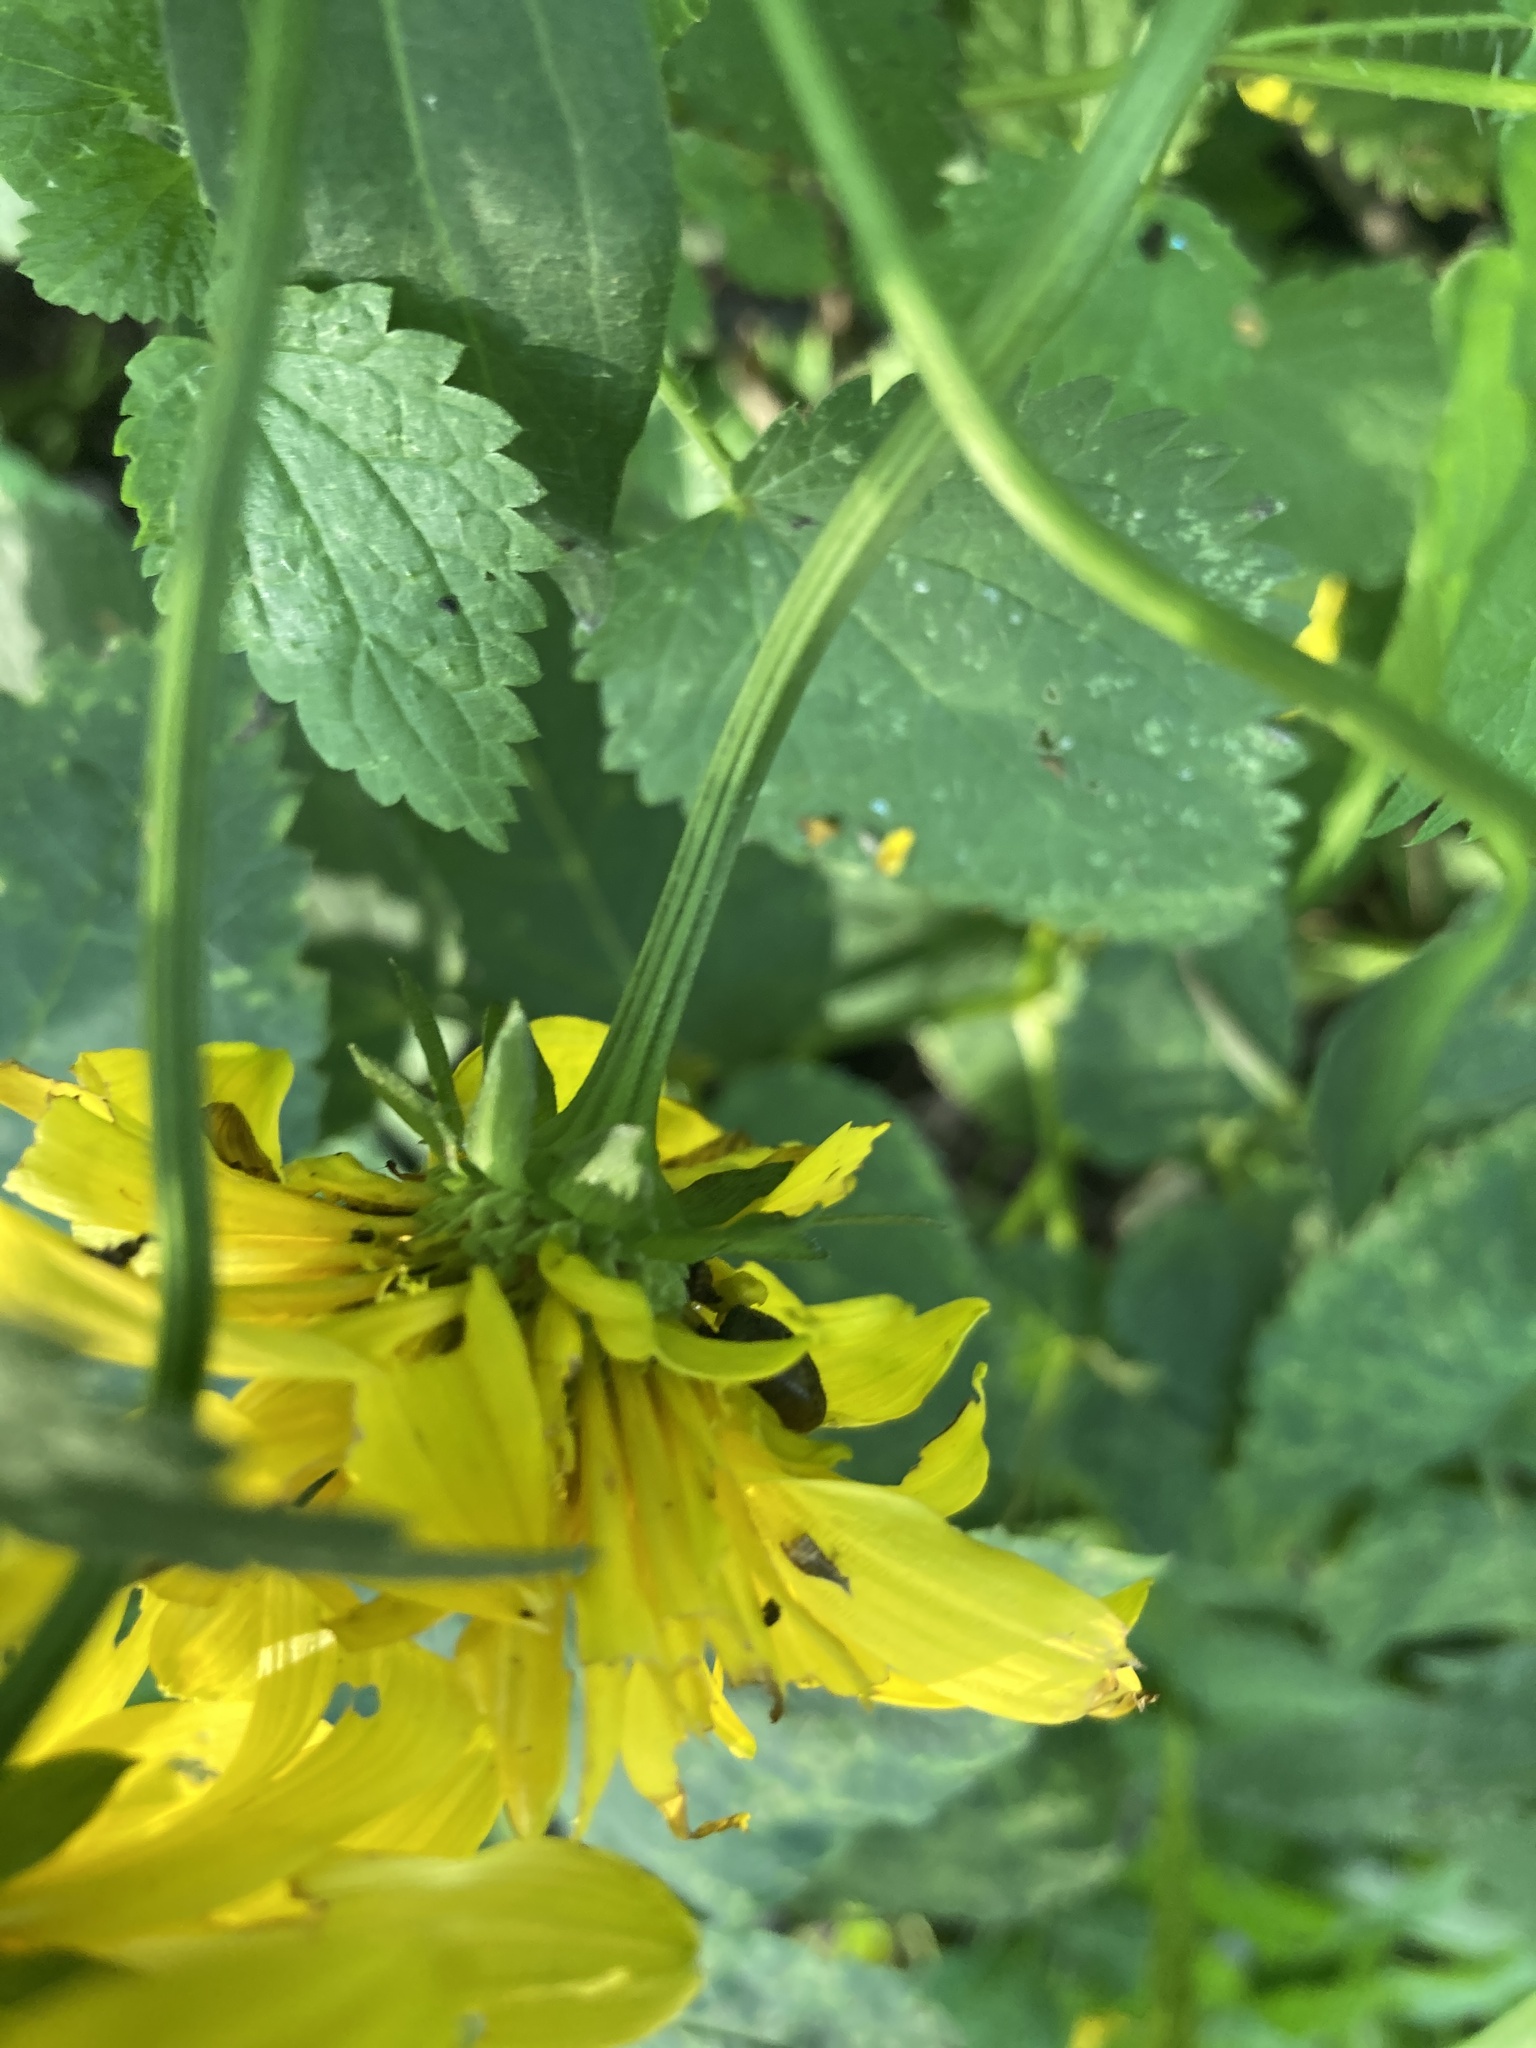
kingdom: Plantae
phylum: Tracheophyta
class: Magnoliopsida
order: Asterales
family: Asteraceae
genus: Rudbeckia
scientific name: Rudbeckia laciniata
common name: Coneflower
